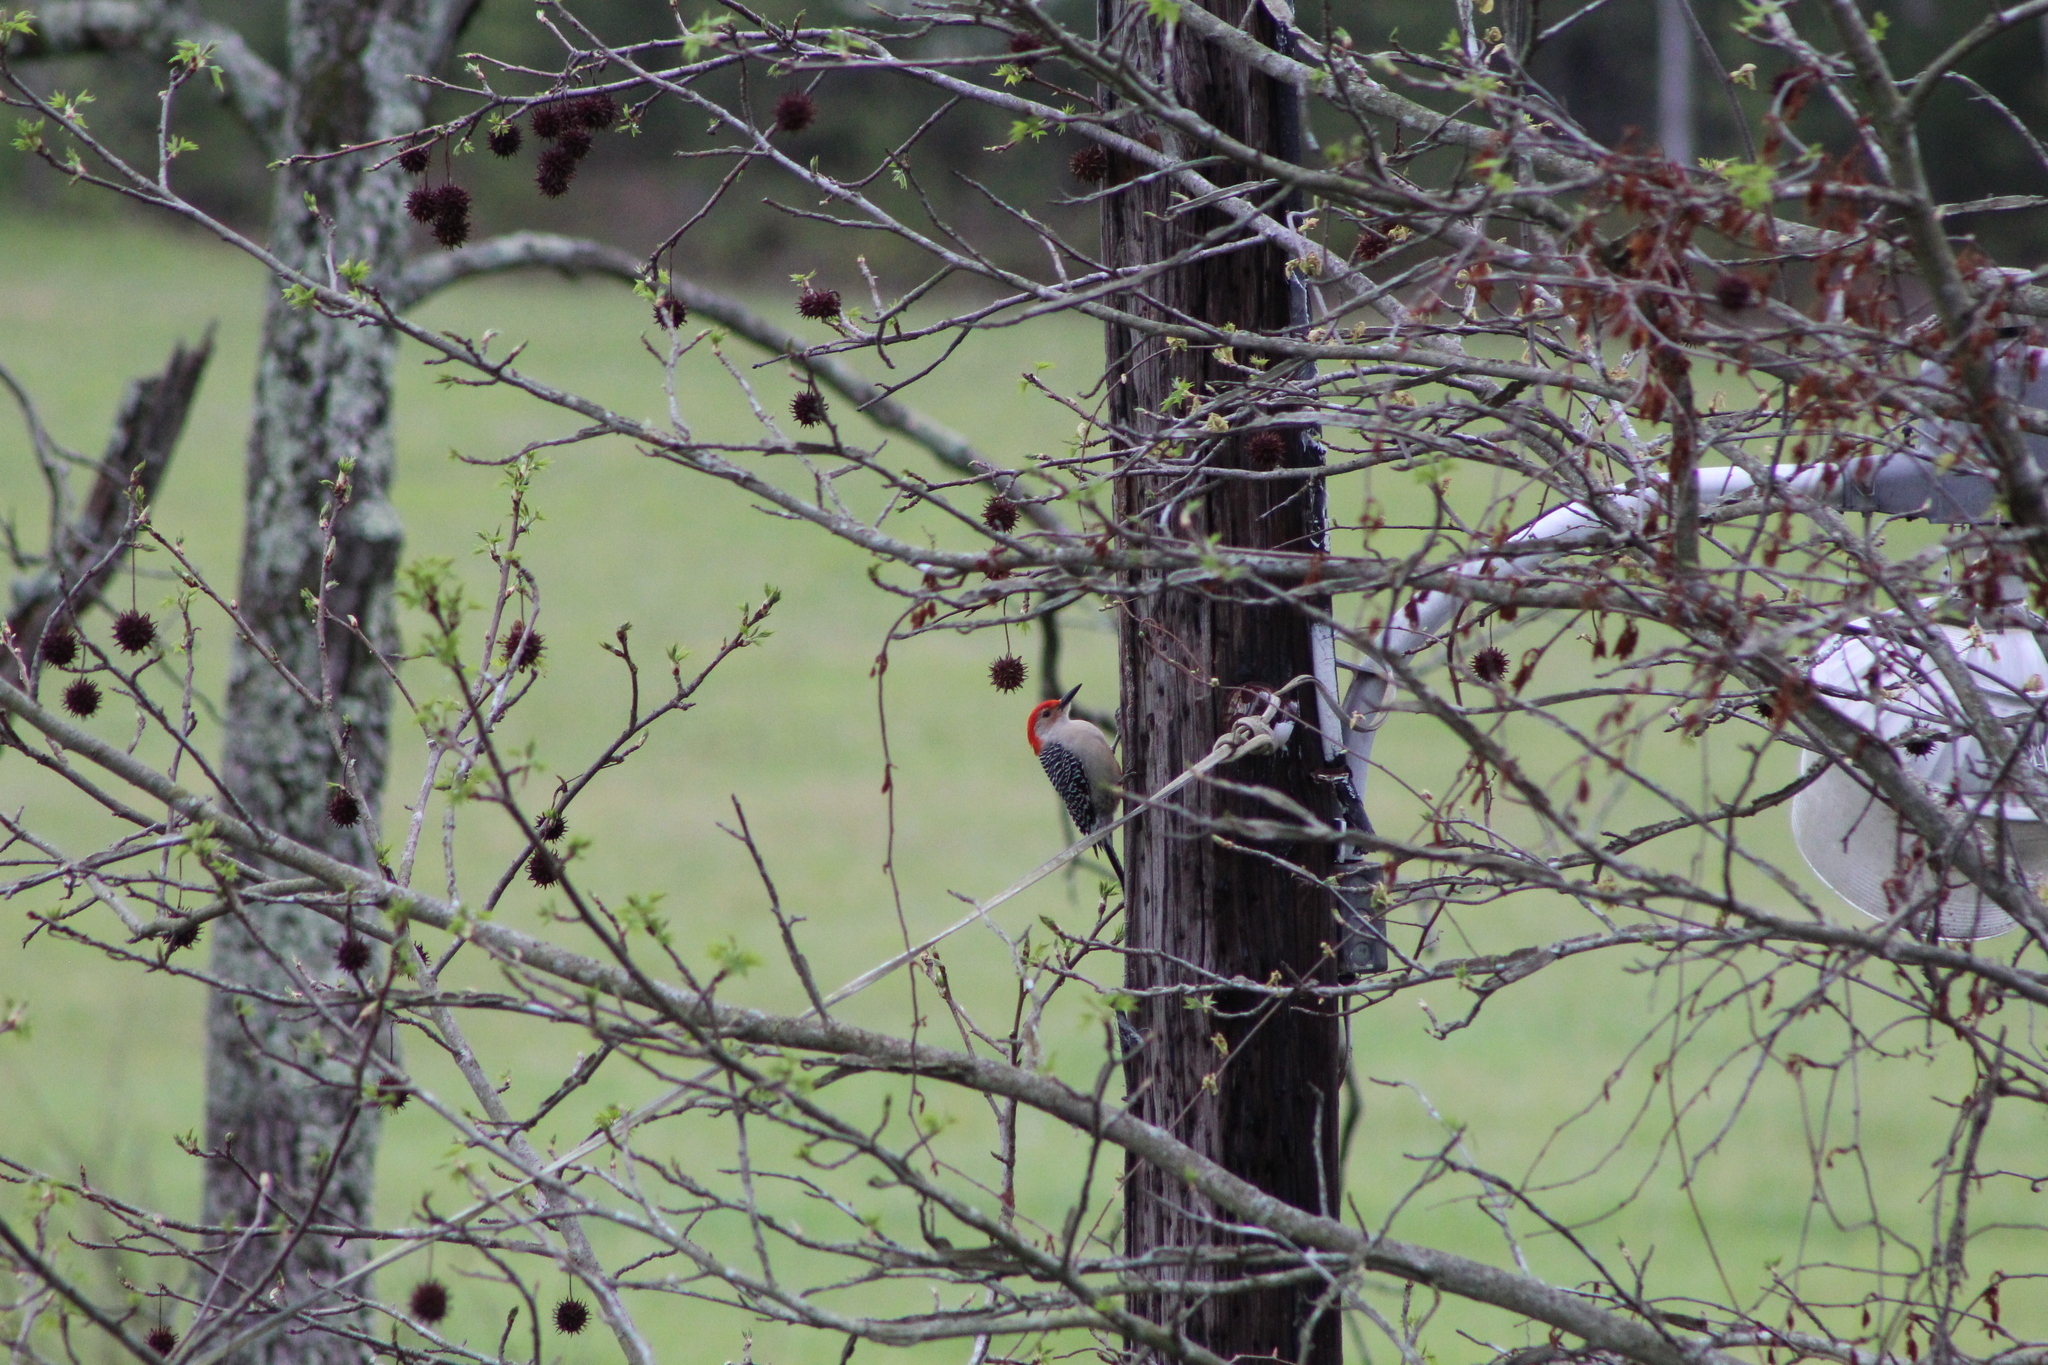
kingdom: Animalia
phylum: Chordata
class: Aves
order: Piciformes
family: Picidae
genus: Melanerpes
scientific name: Melanerpes carolinus
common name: Red-bellied woodpecker
